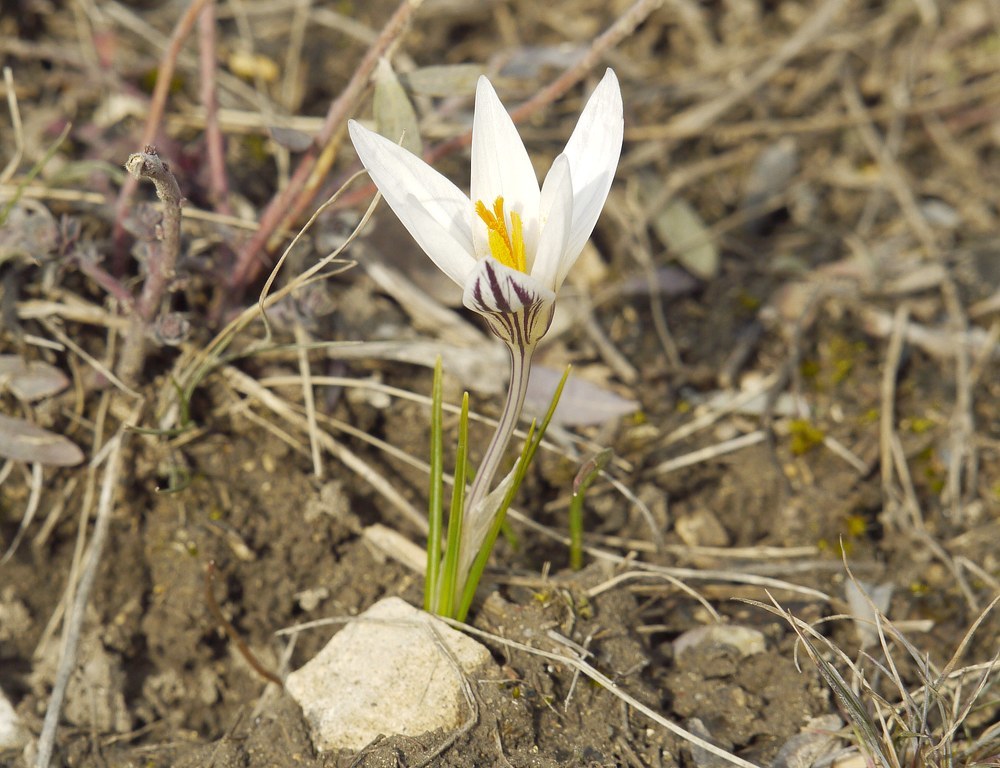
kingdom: Plantae
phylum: Tracheophyta
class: Liliopsida
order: Asparagales
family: Iridaceae
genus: Crocus
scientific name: Crocus reticulatus
